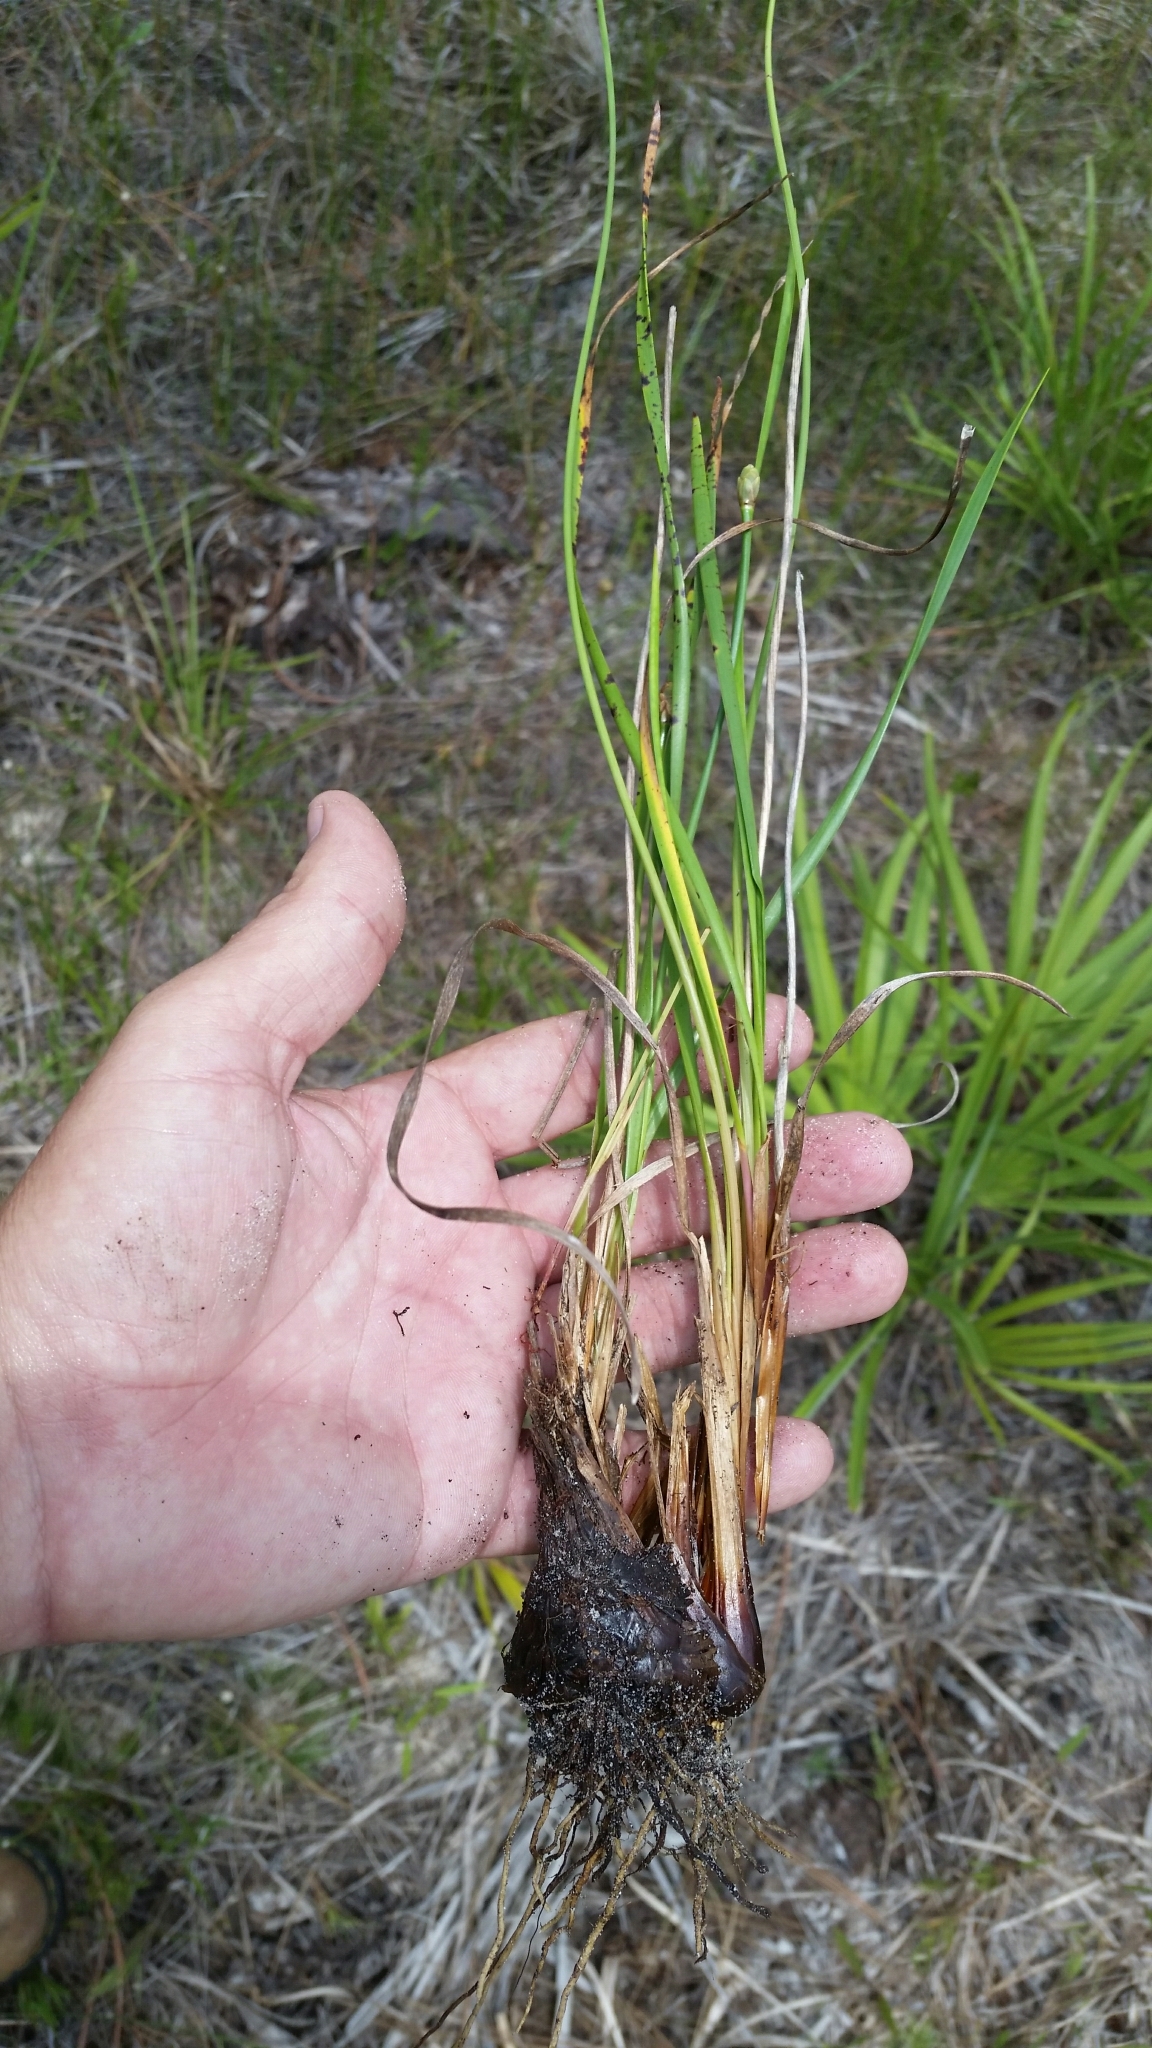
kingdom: Plantae
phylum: Tracheophyta
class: Liliopsida
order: Poales
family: Xyridaceae
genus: Xyris
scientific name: Xyris caroliniana
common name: Carolina yellow-eyed-grass
